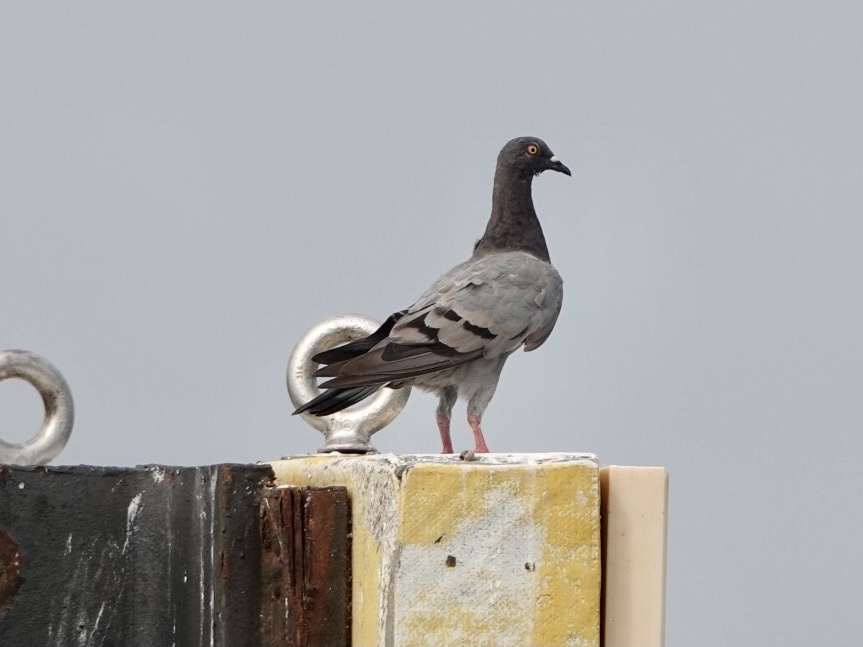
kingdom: Animalia
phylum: Chordata
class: Aves
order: Columbiformes
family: Columbidae
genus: Columba
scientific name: Columba livia
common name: Rock pigeon
